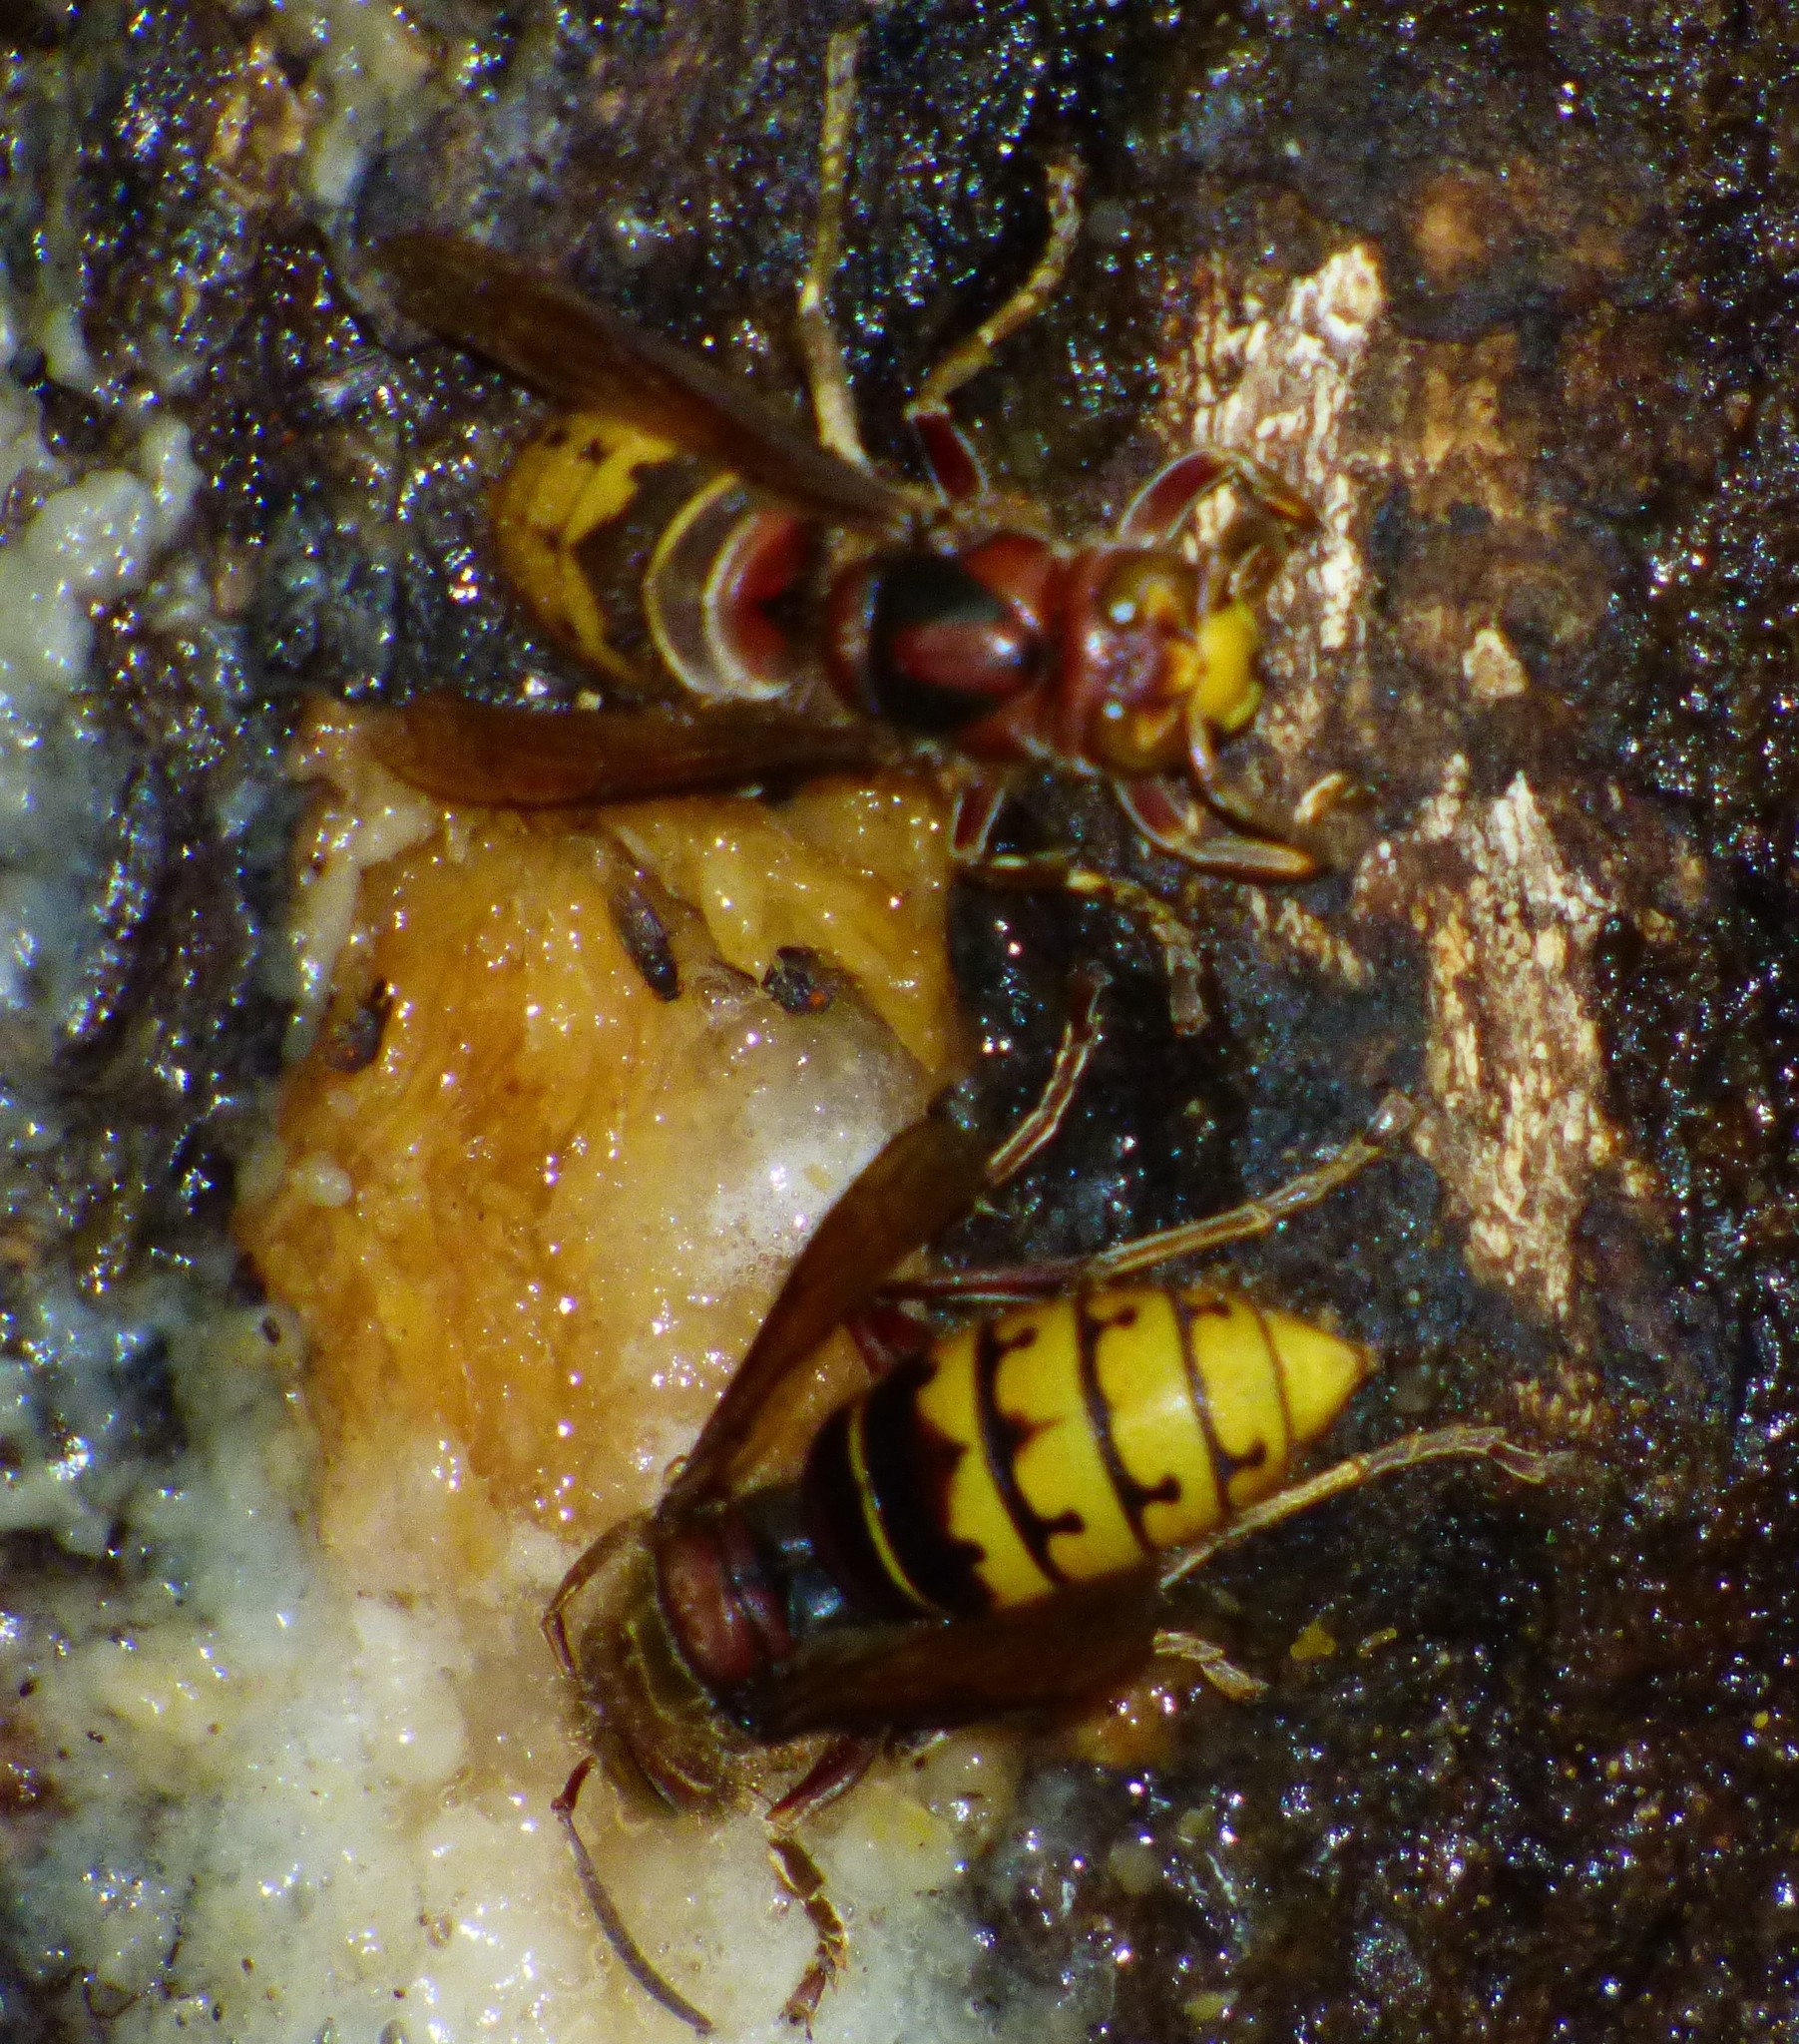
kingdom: Animalia
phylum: Arthropoda
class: Insecta
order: Hymenoptera
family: Vespidae
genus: Vespa
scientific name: Vespa crabro
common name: Hornet
